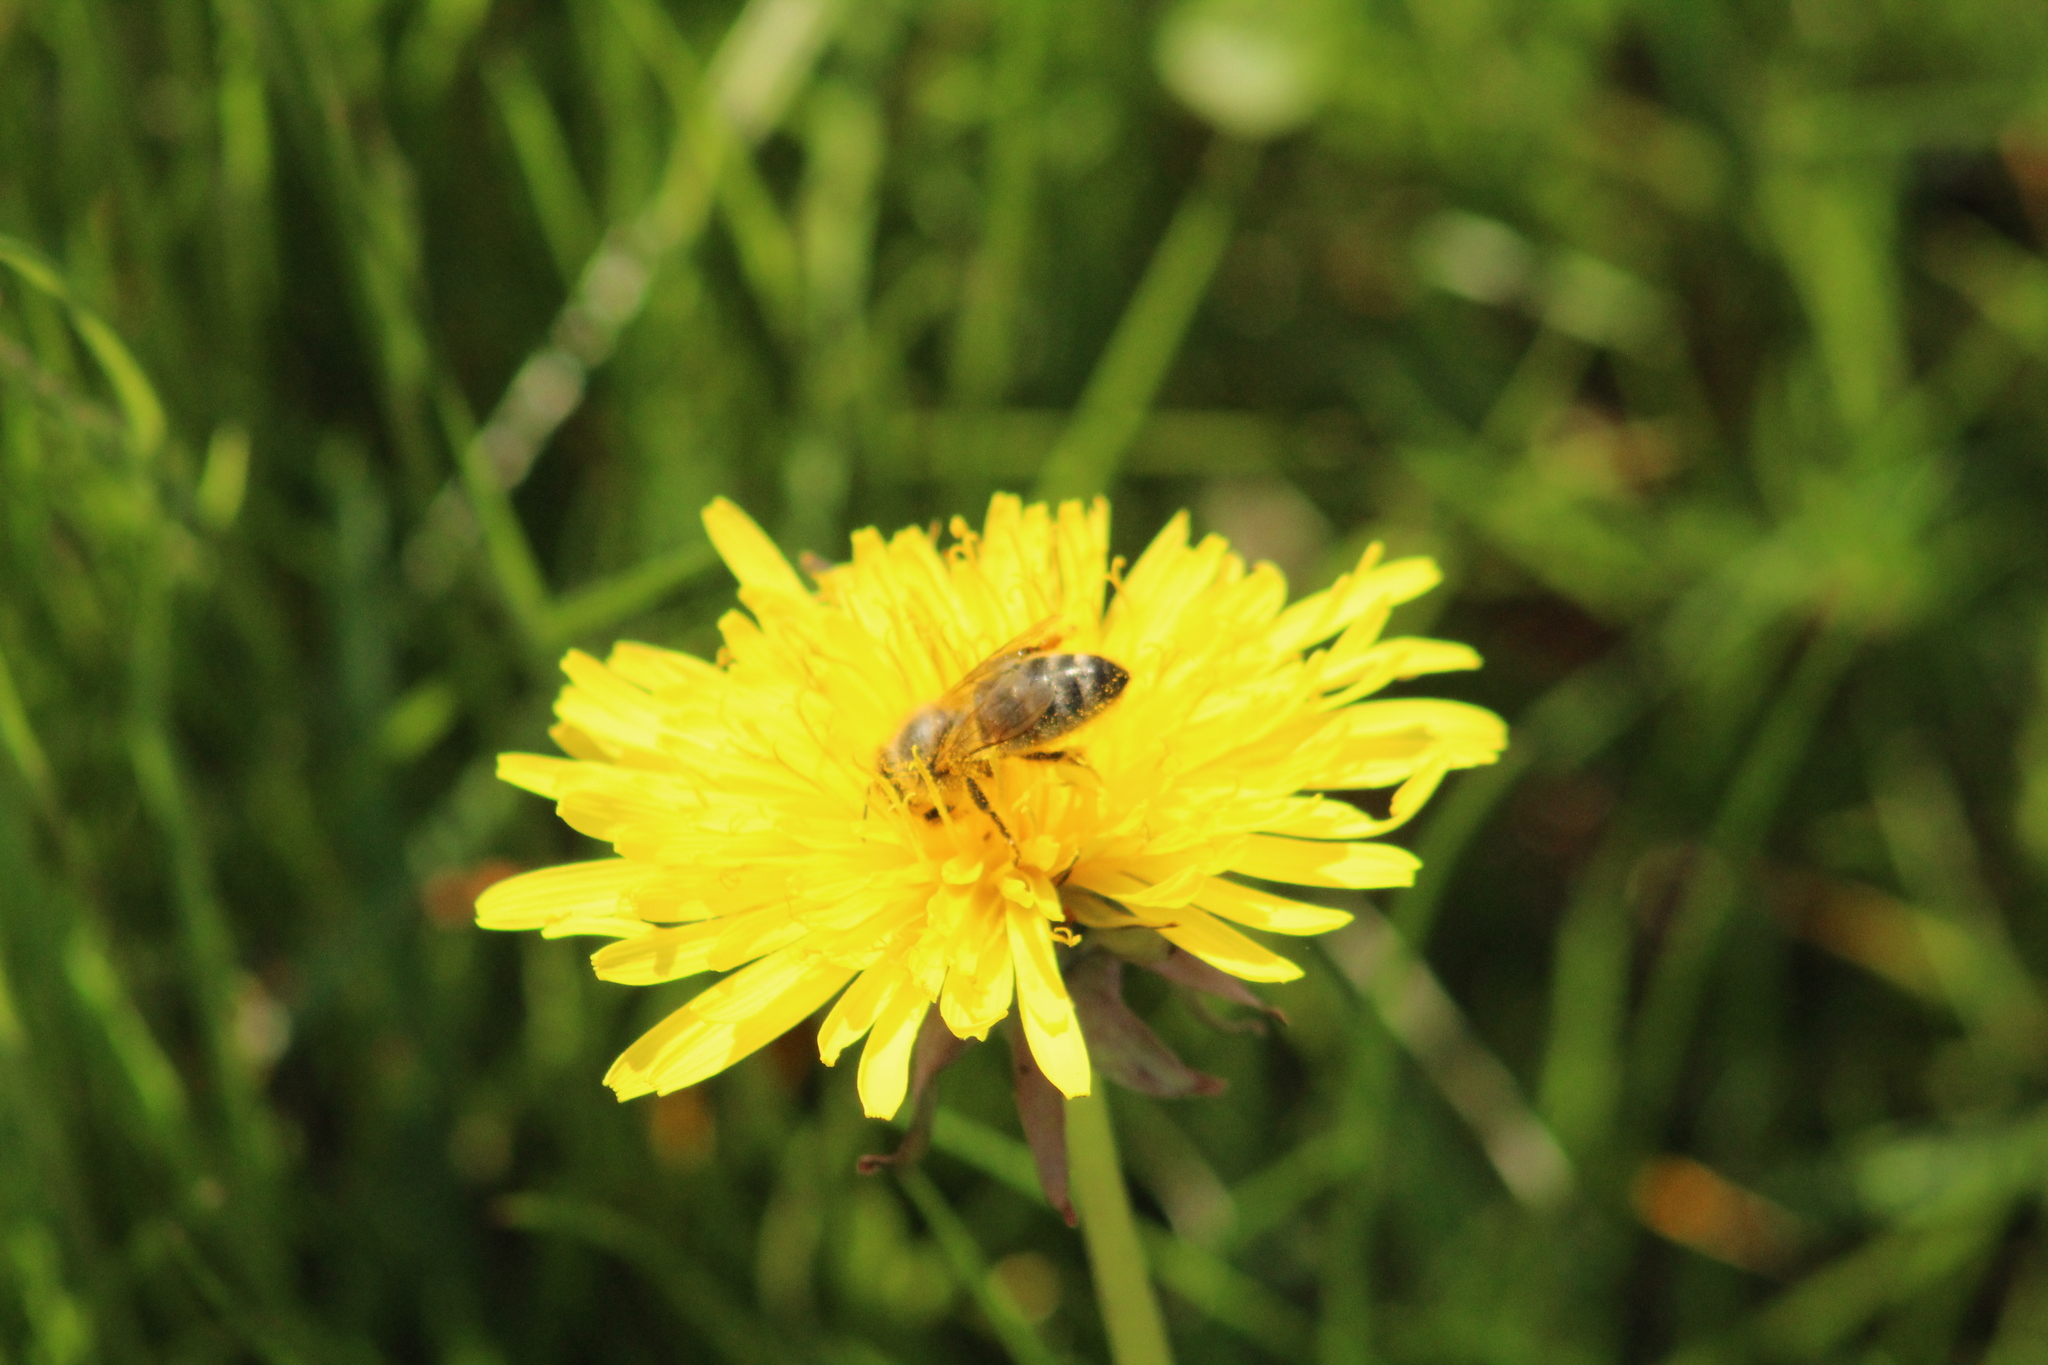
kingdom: Animalia
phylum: Arthropoda
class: Insecta
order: Hymenoptera
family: Apidae
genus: Apis
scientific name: Apis mellifera
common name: Honey bee
